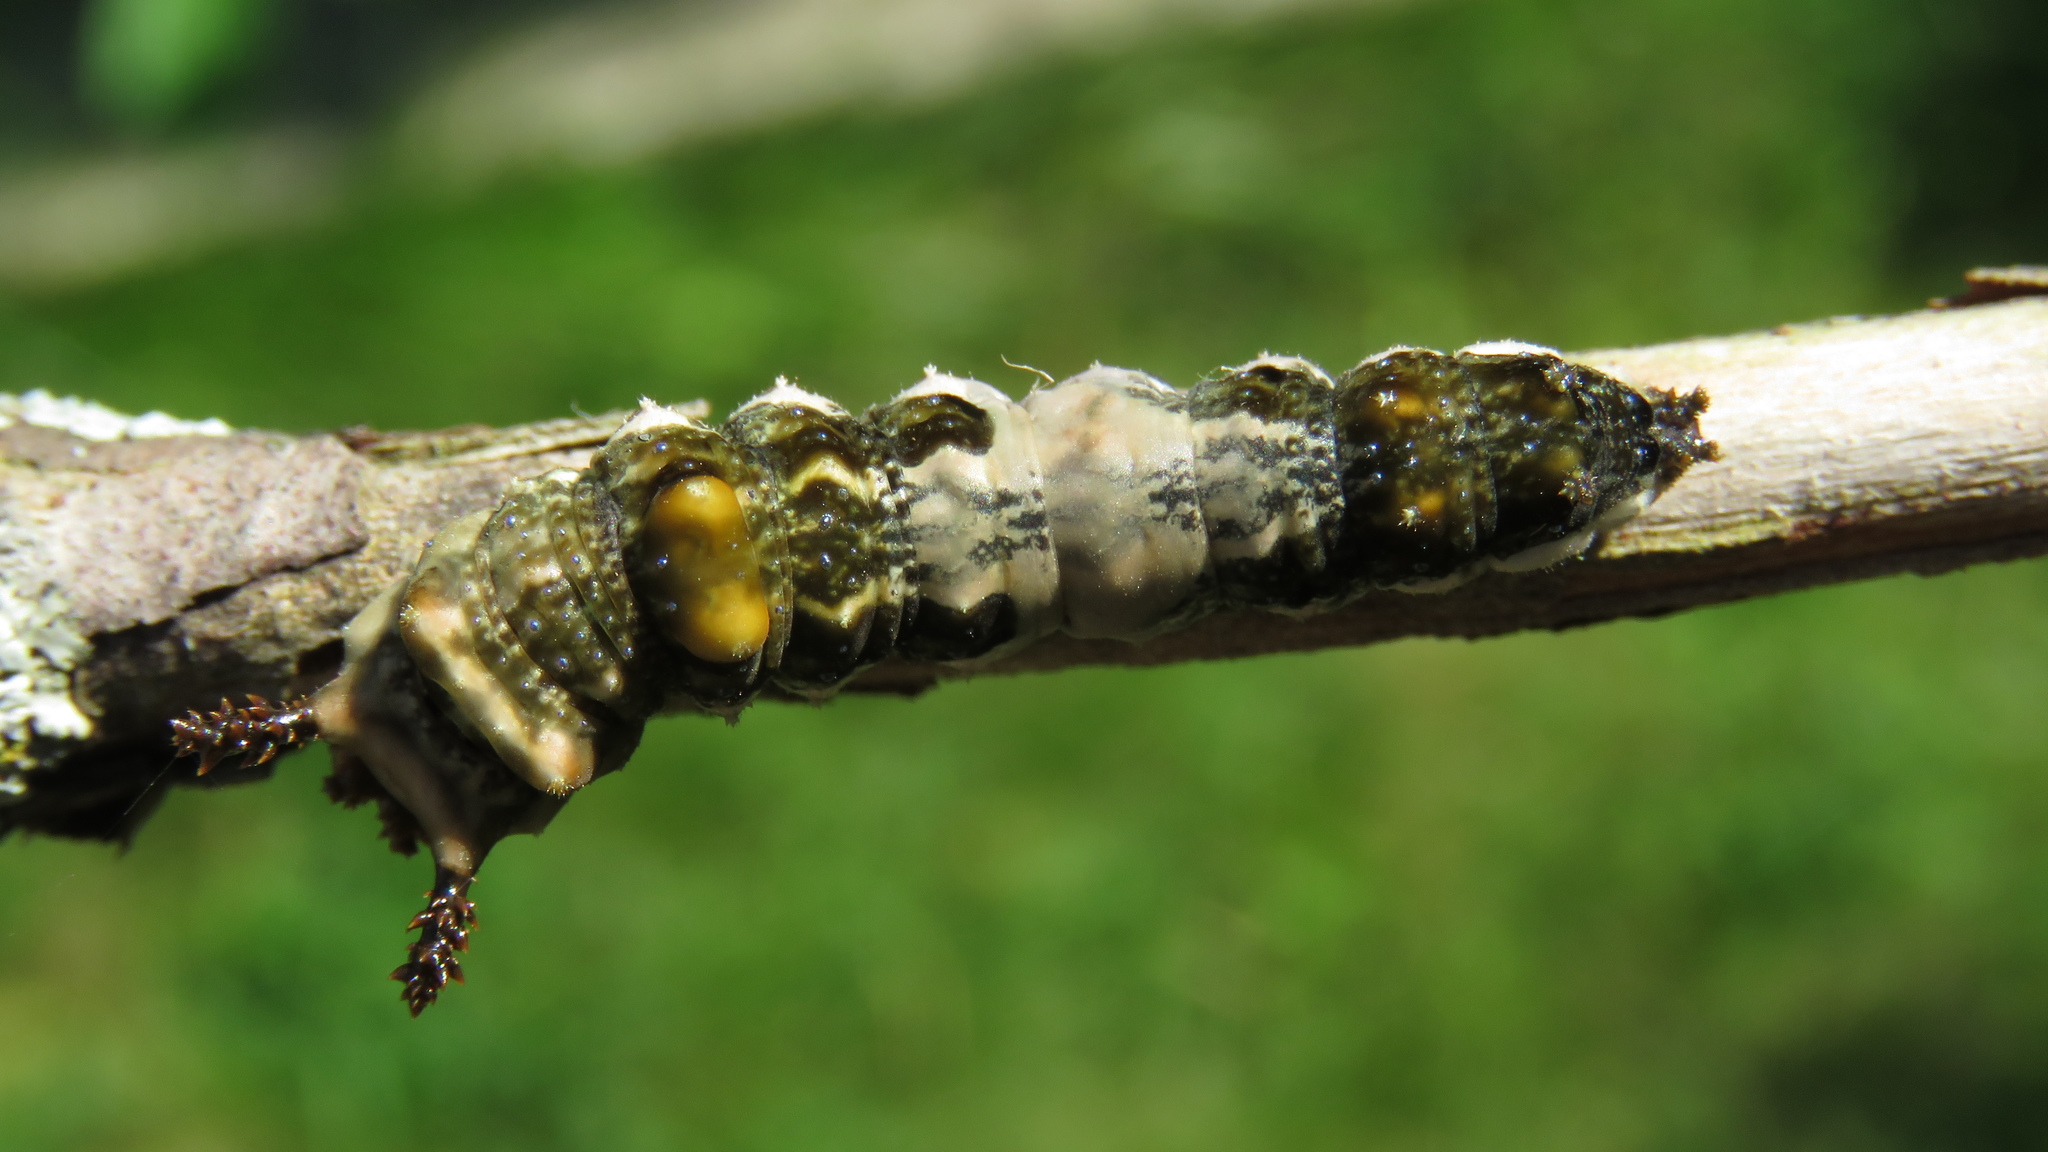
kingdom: Animalia
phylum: Arthropoda
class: Insecta
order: Lepidoptera
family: Nymphalidae
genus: Limenitis
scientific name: Limenitis
